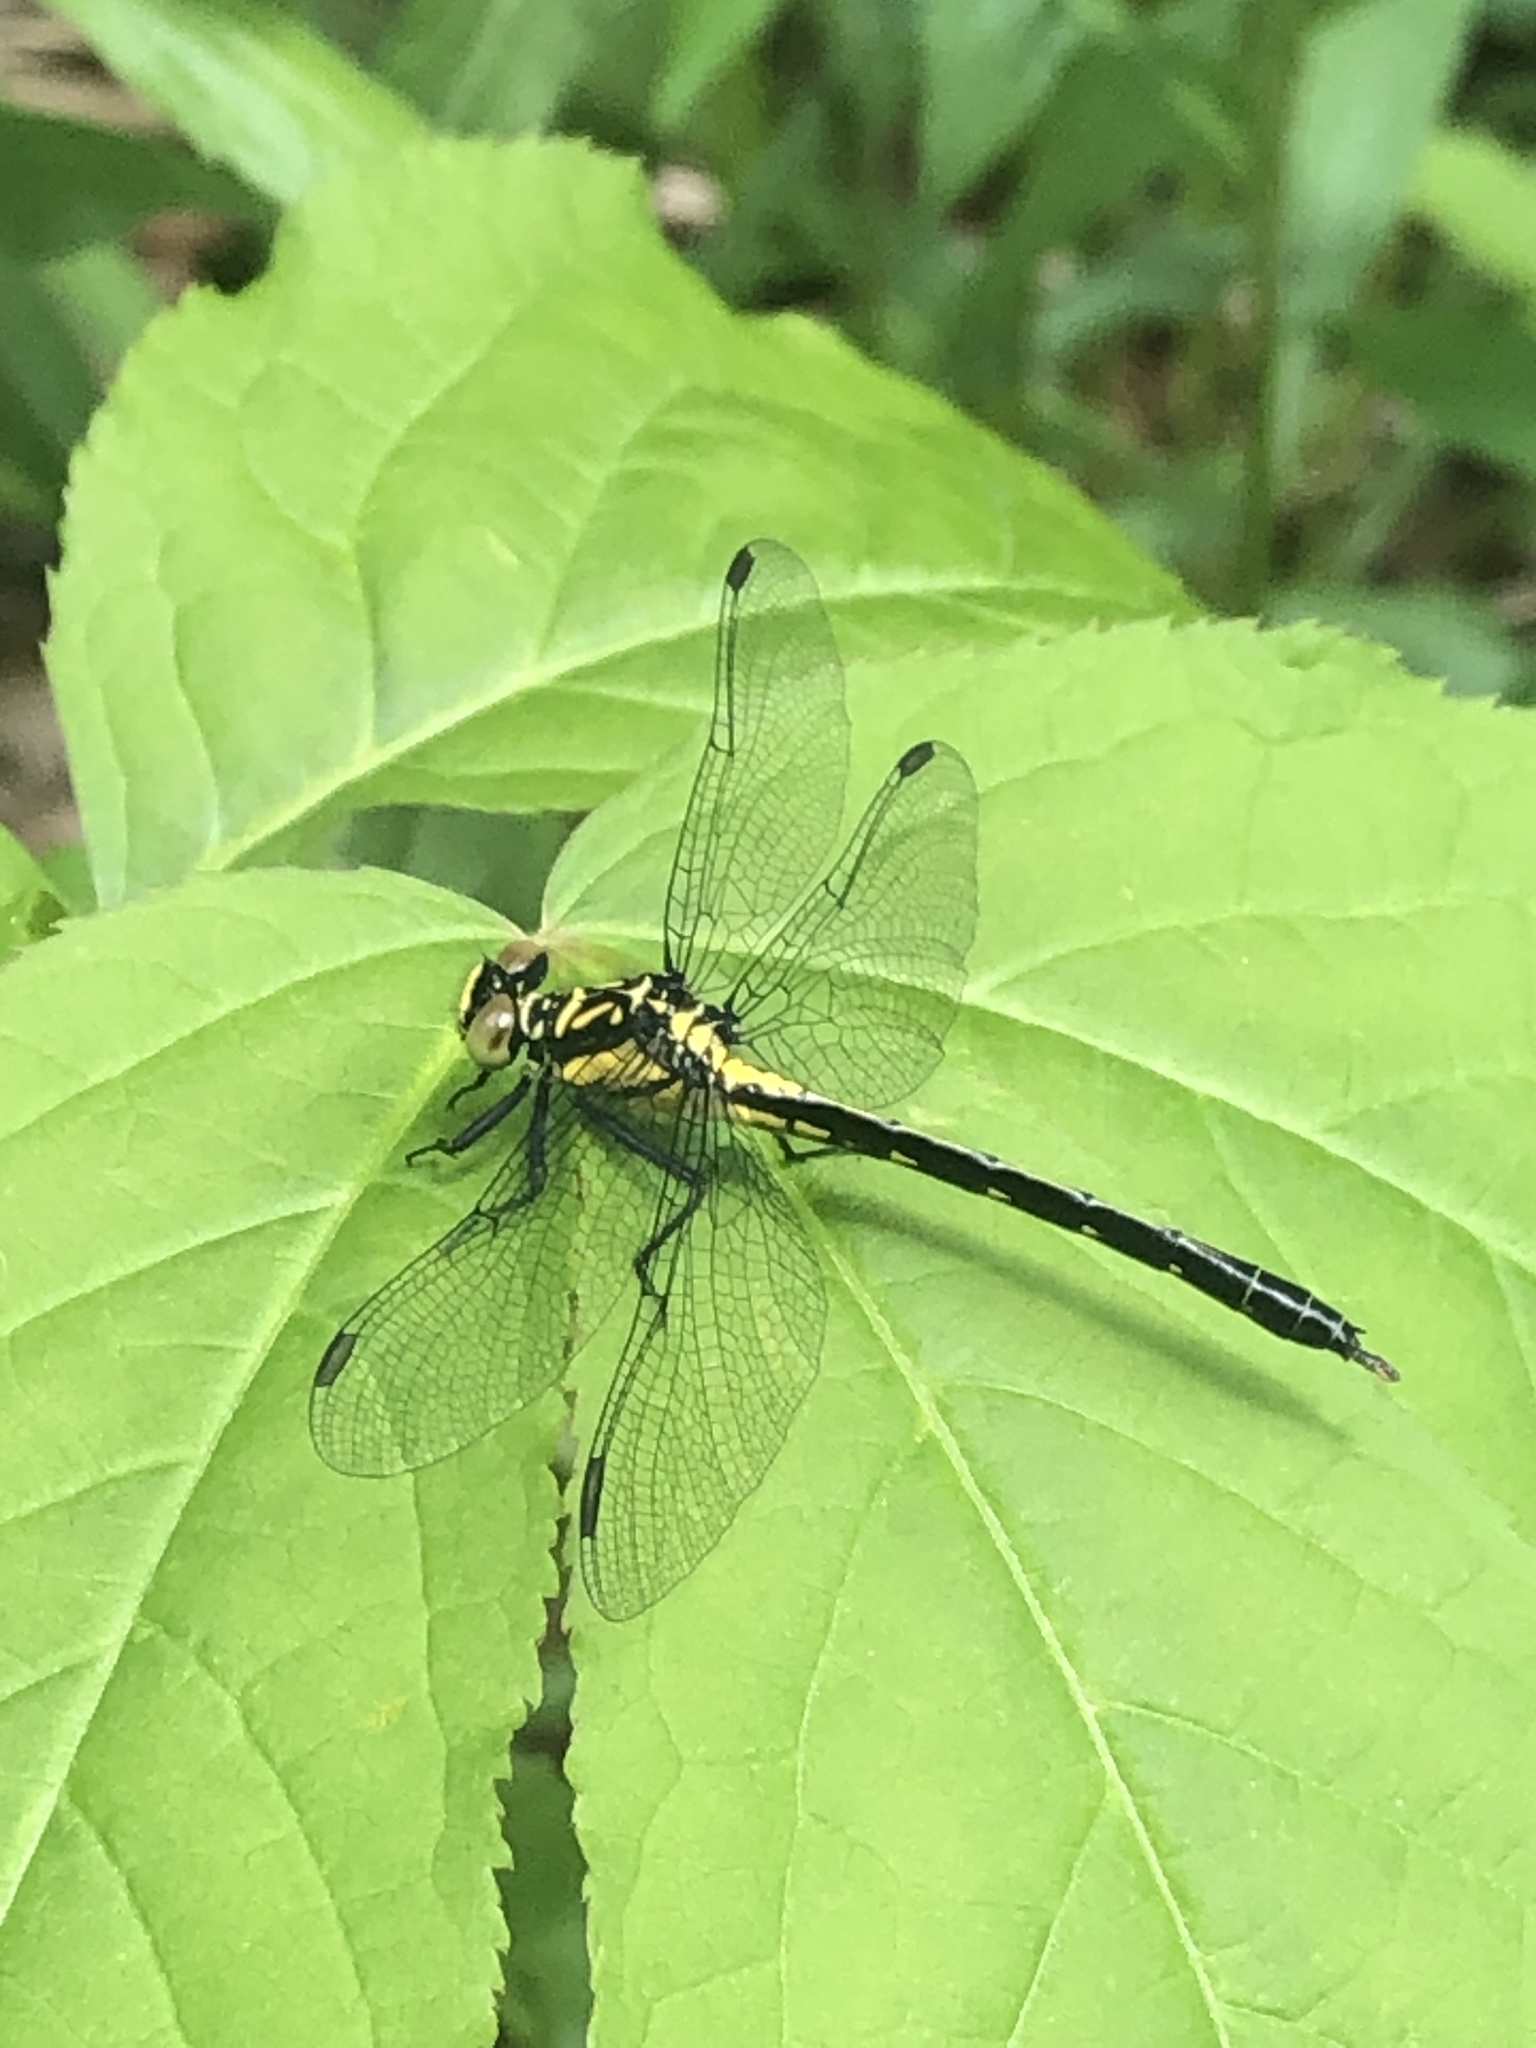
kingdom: Animalia
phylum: Arthropoda
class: Insecta
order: Odonata
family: Gomphidae
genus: Lanthus
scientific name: Lanthus vernalis
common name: Southern pygmy clubtail
